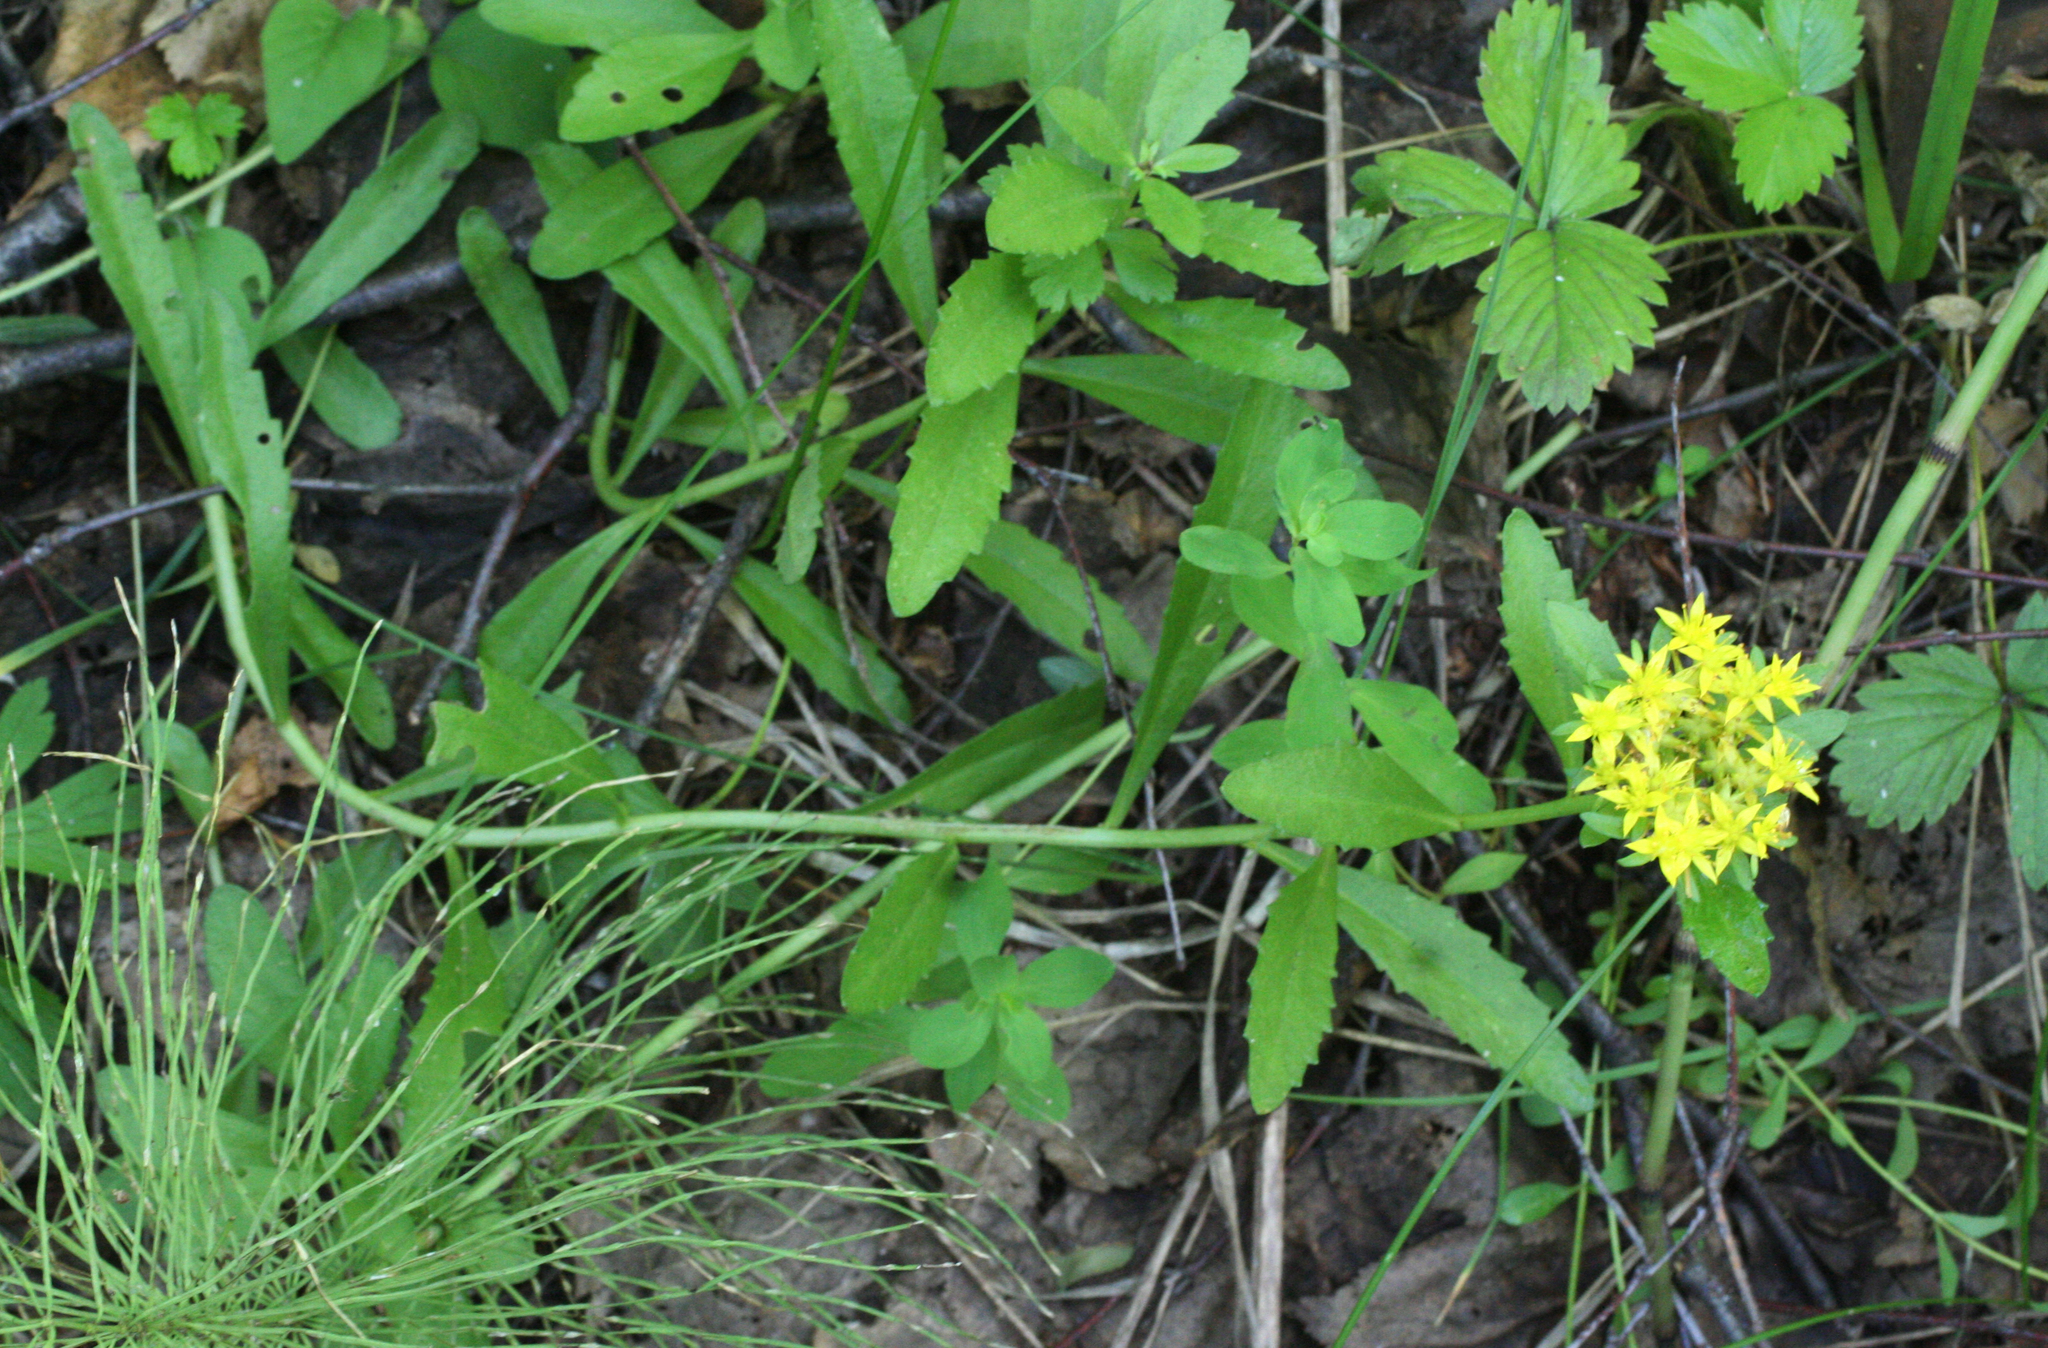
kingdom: Plantae
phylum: Tracheophyta
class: Magnoliopsida
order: Saxifragales
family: Crassulaceae
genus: Phedimus
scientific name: Phedimus aizoon
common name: Orpin aizoon
